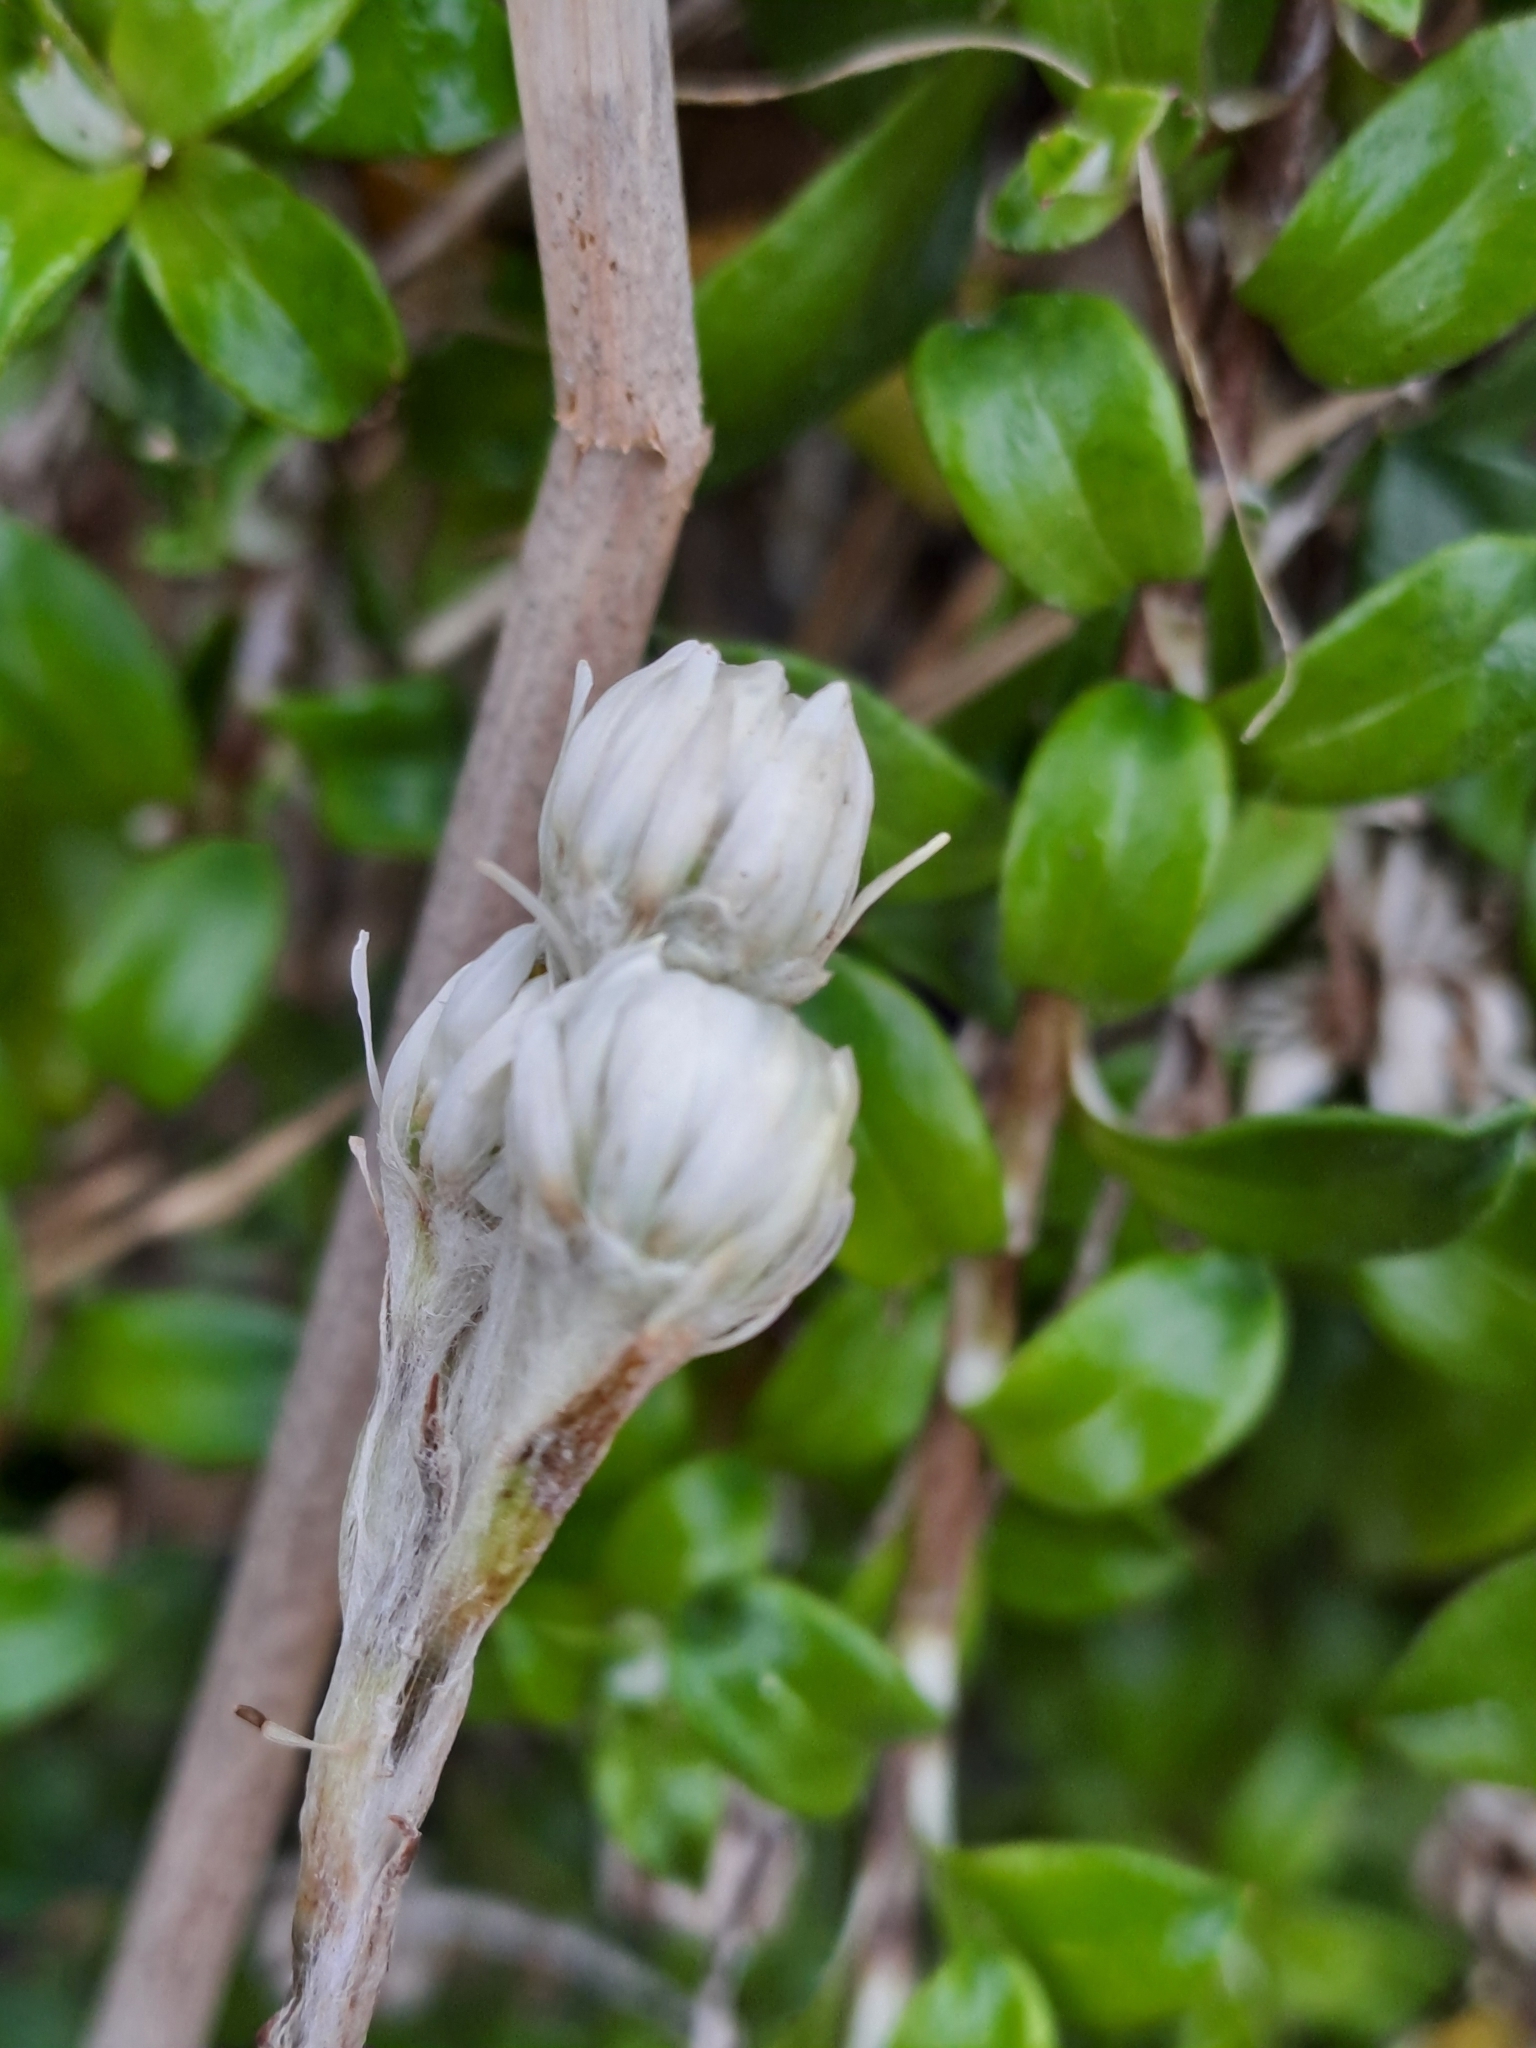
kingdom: Plantae
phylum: Tracheophyta
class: Magnoliopsida
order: Asterales
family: Asteraceae
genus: Anaphalioides
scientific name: Anaphalioides hookeri
